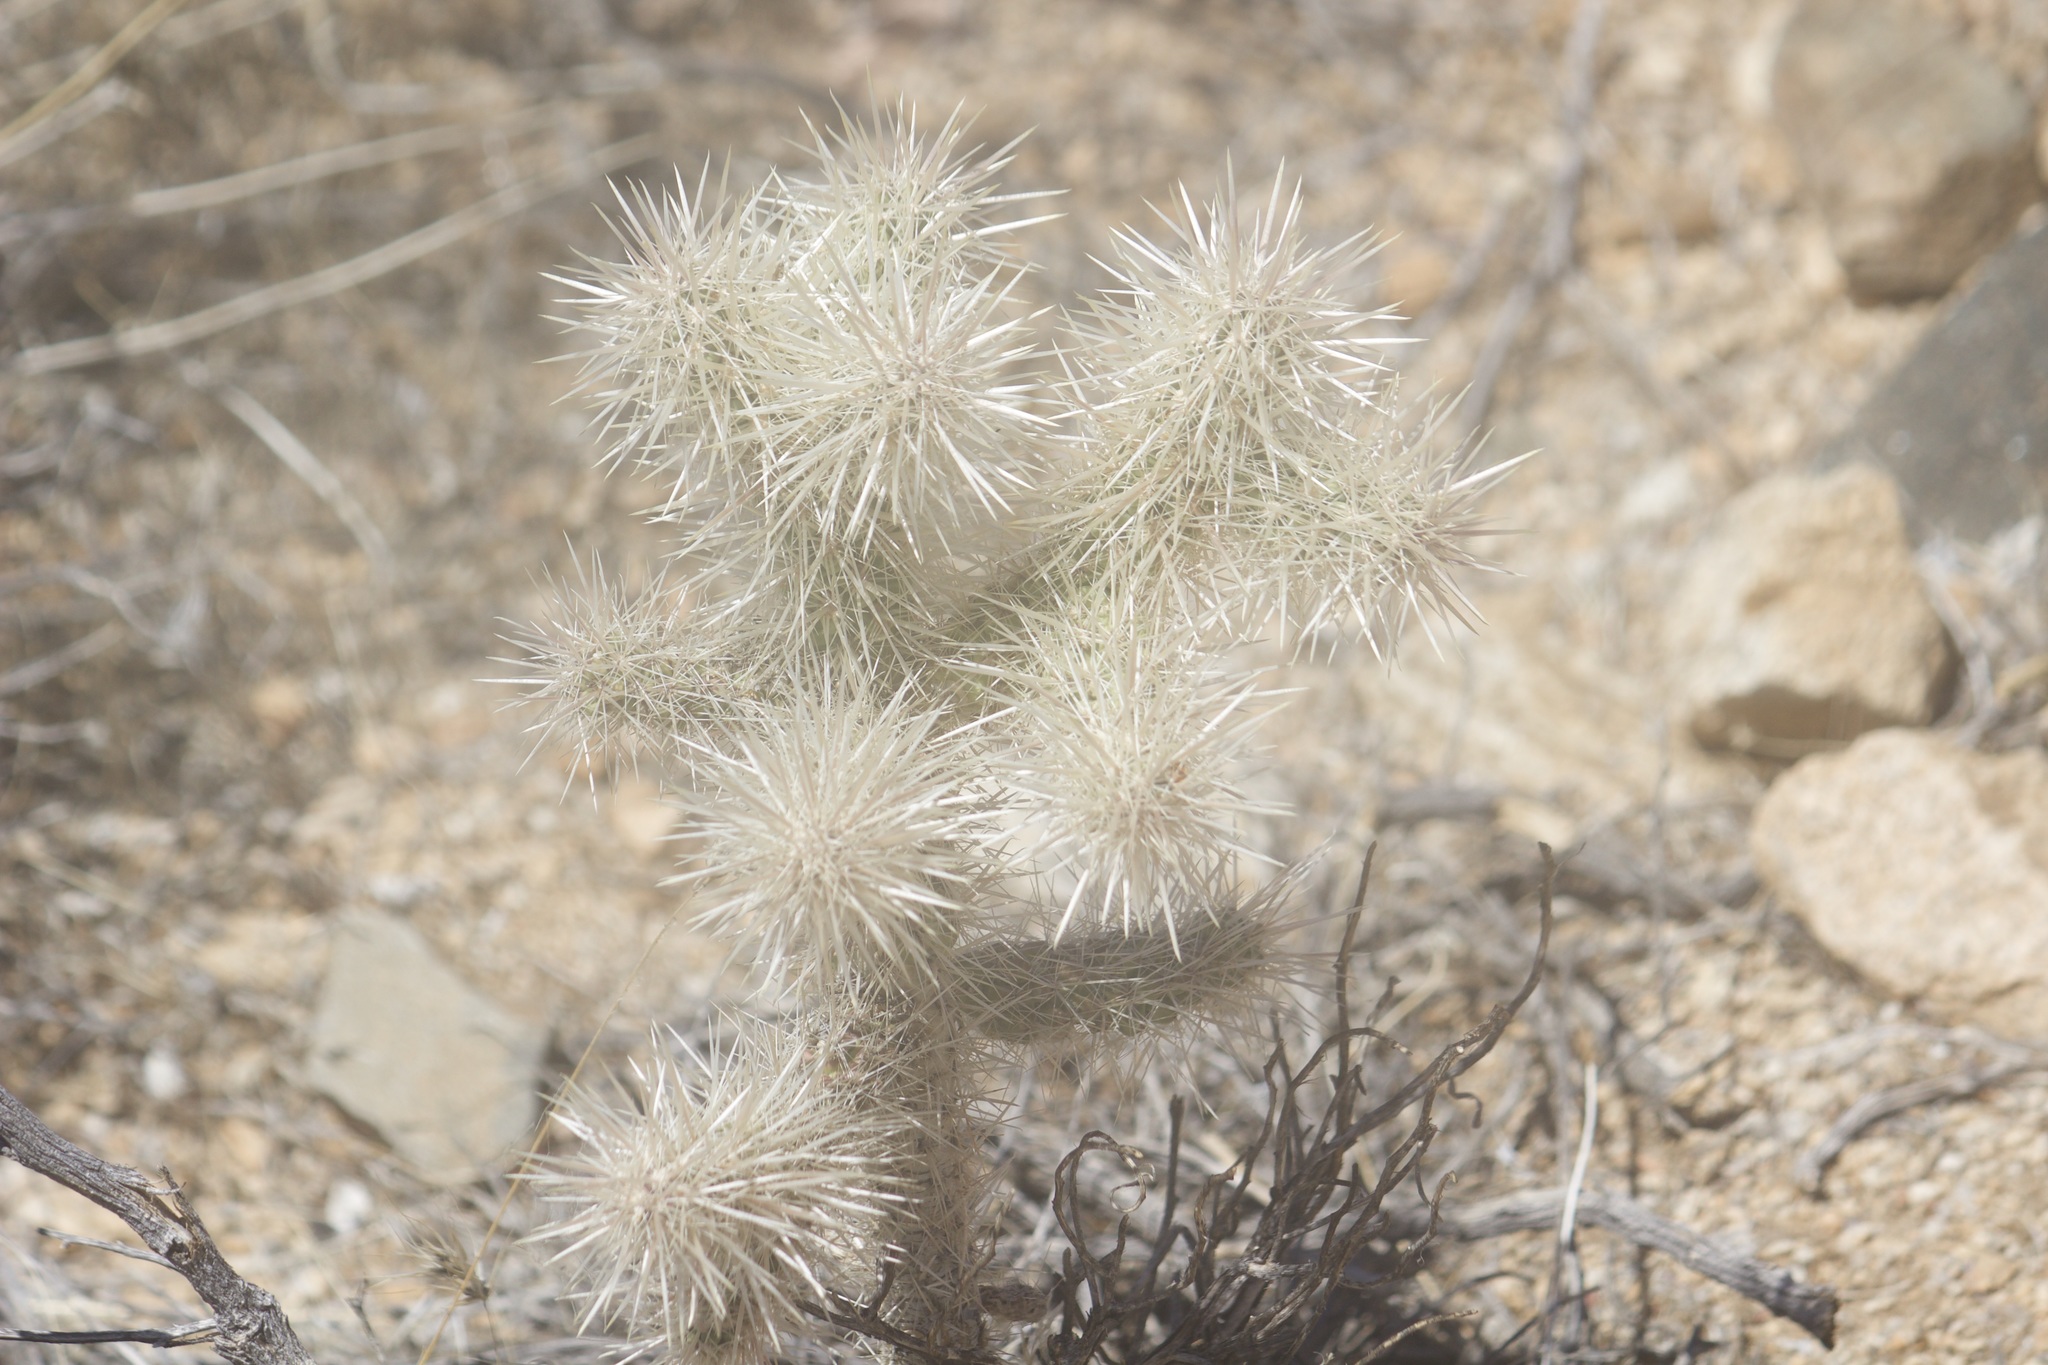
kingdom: Plantae
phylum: Tracheophyta
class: Magnoliopsida
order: Caryophyllales
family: Cactaceae
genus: Cylindropuntia
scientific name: Cylindropuntia echinocarpa
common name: Ground cholla
